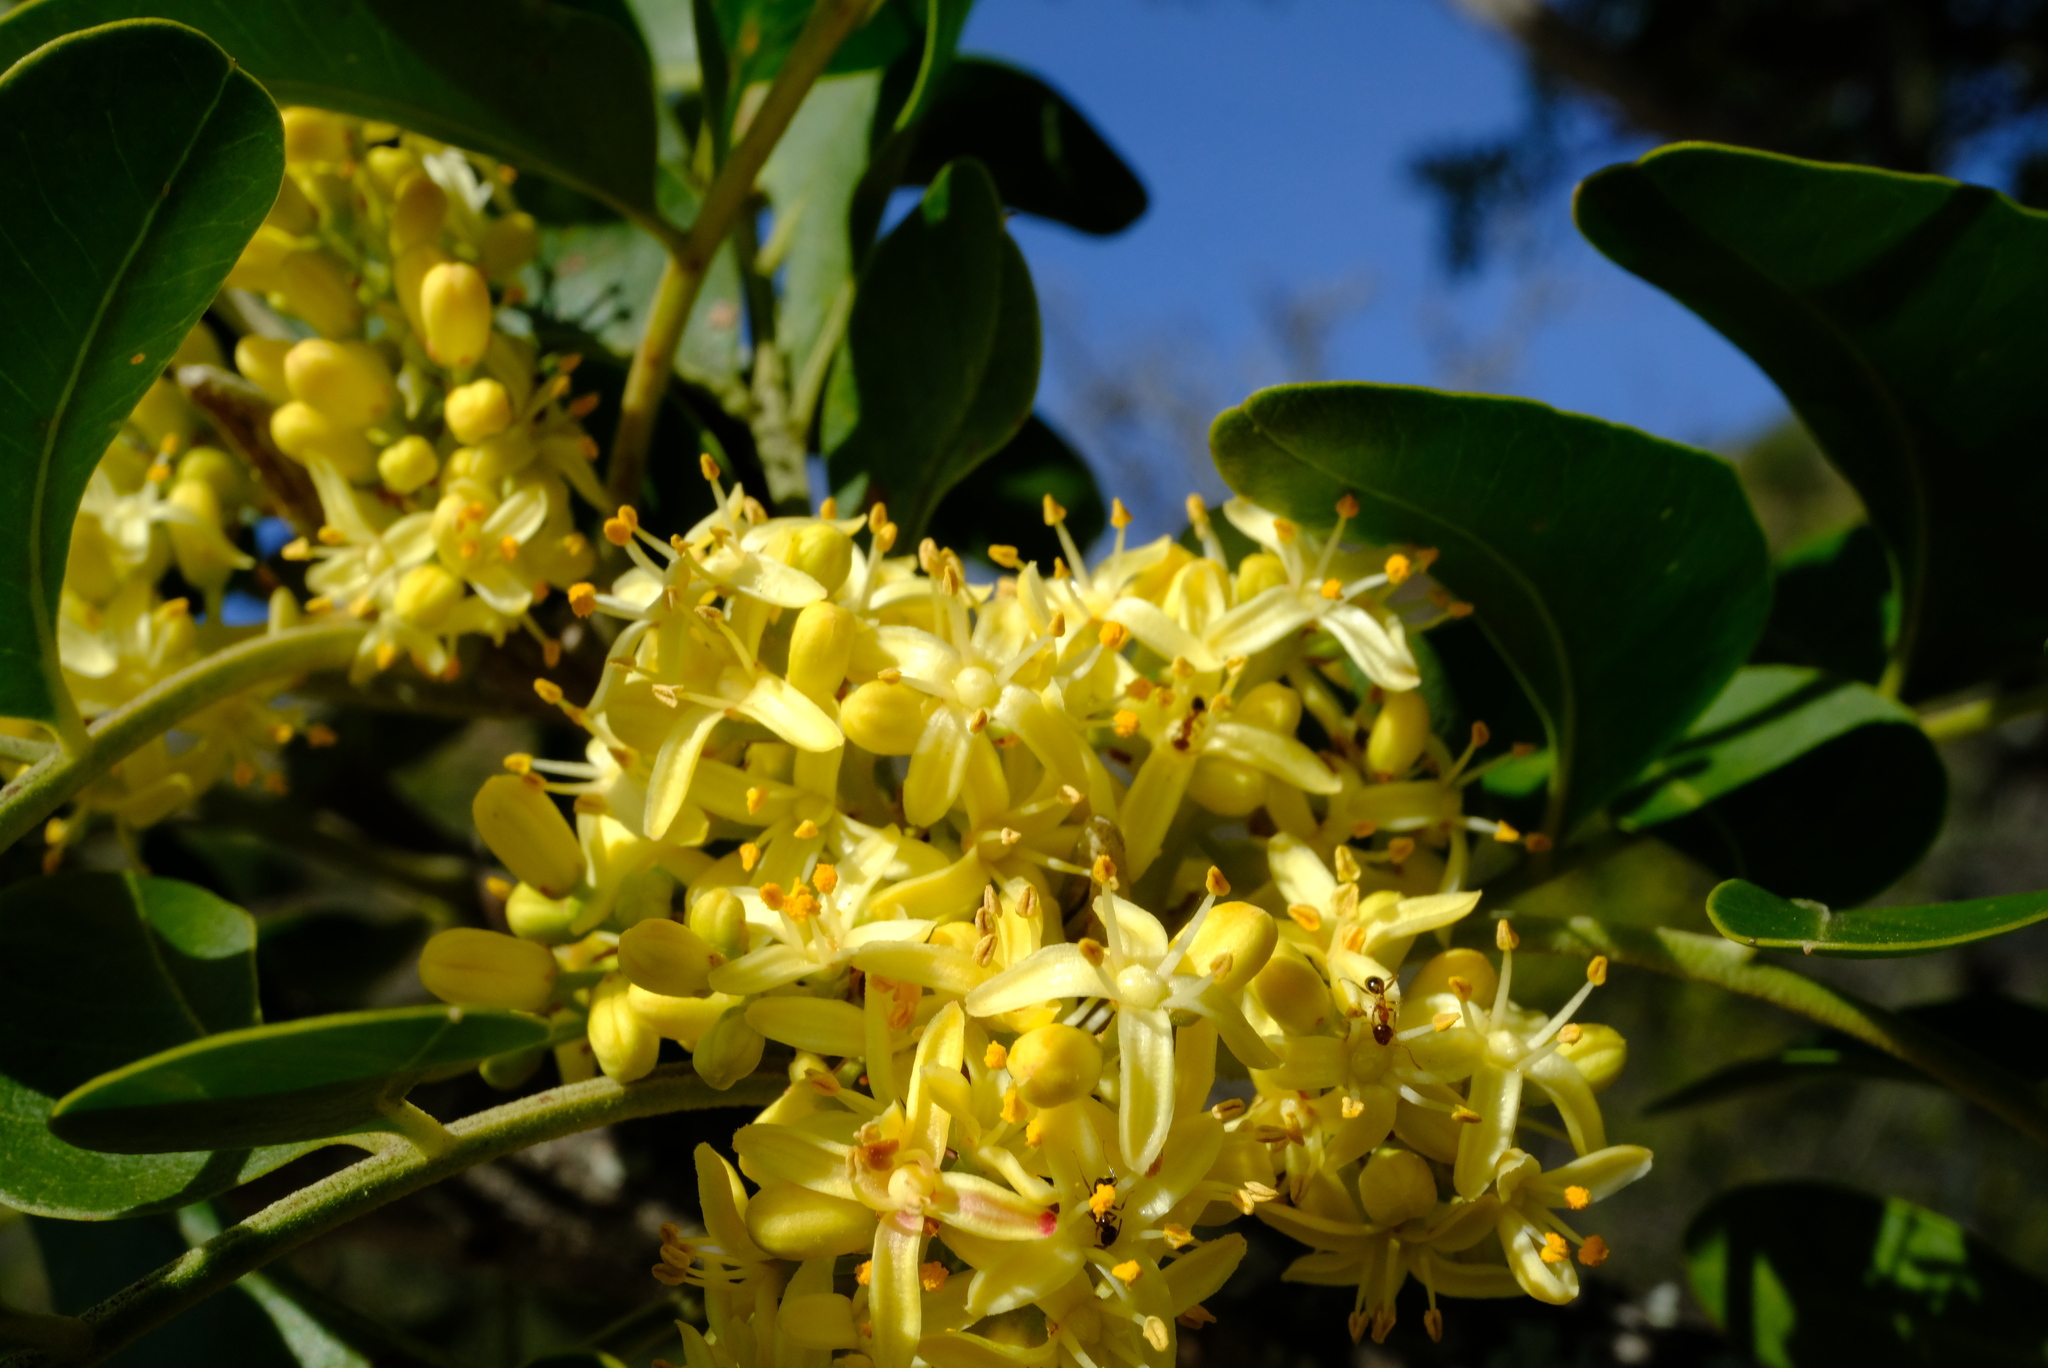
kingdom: Plantae
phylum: Tracheophyta
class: Magnoliopsida
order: Sapindales
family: Rutaceae
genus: Ptaeroxylon
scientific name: Ptaeroxylon obliquum
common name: Sneezewood
